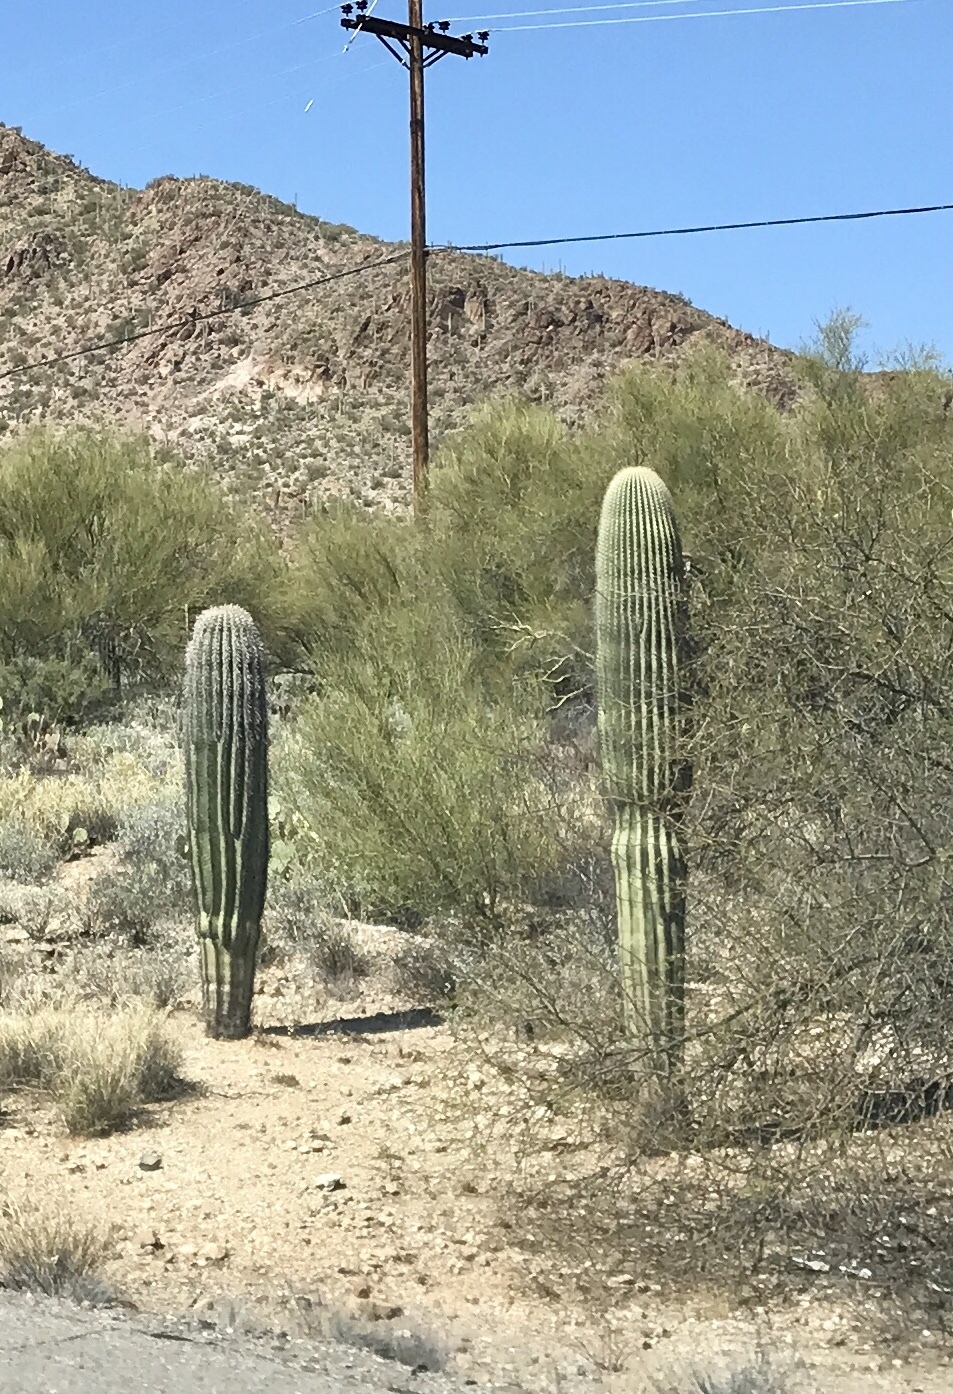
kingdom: Plantae
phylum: Tracheophyta
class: Magnoliopsida
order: Caryophyllales
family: Cactaceae
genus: Carnegiea
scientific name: Carnegiea gigantea
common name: Saguaro
